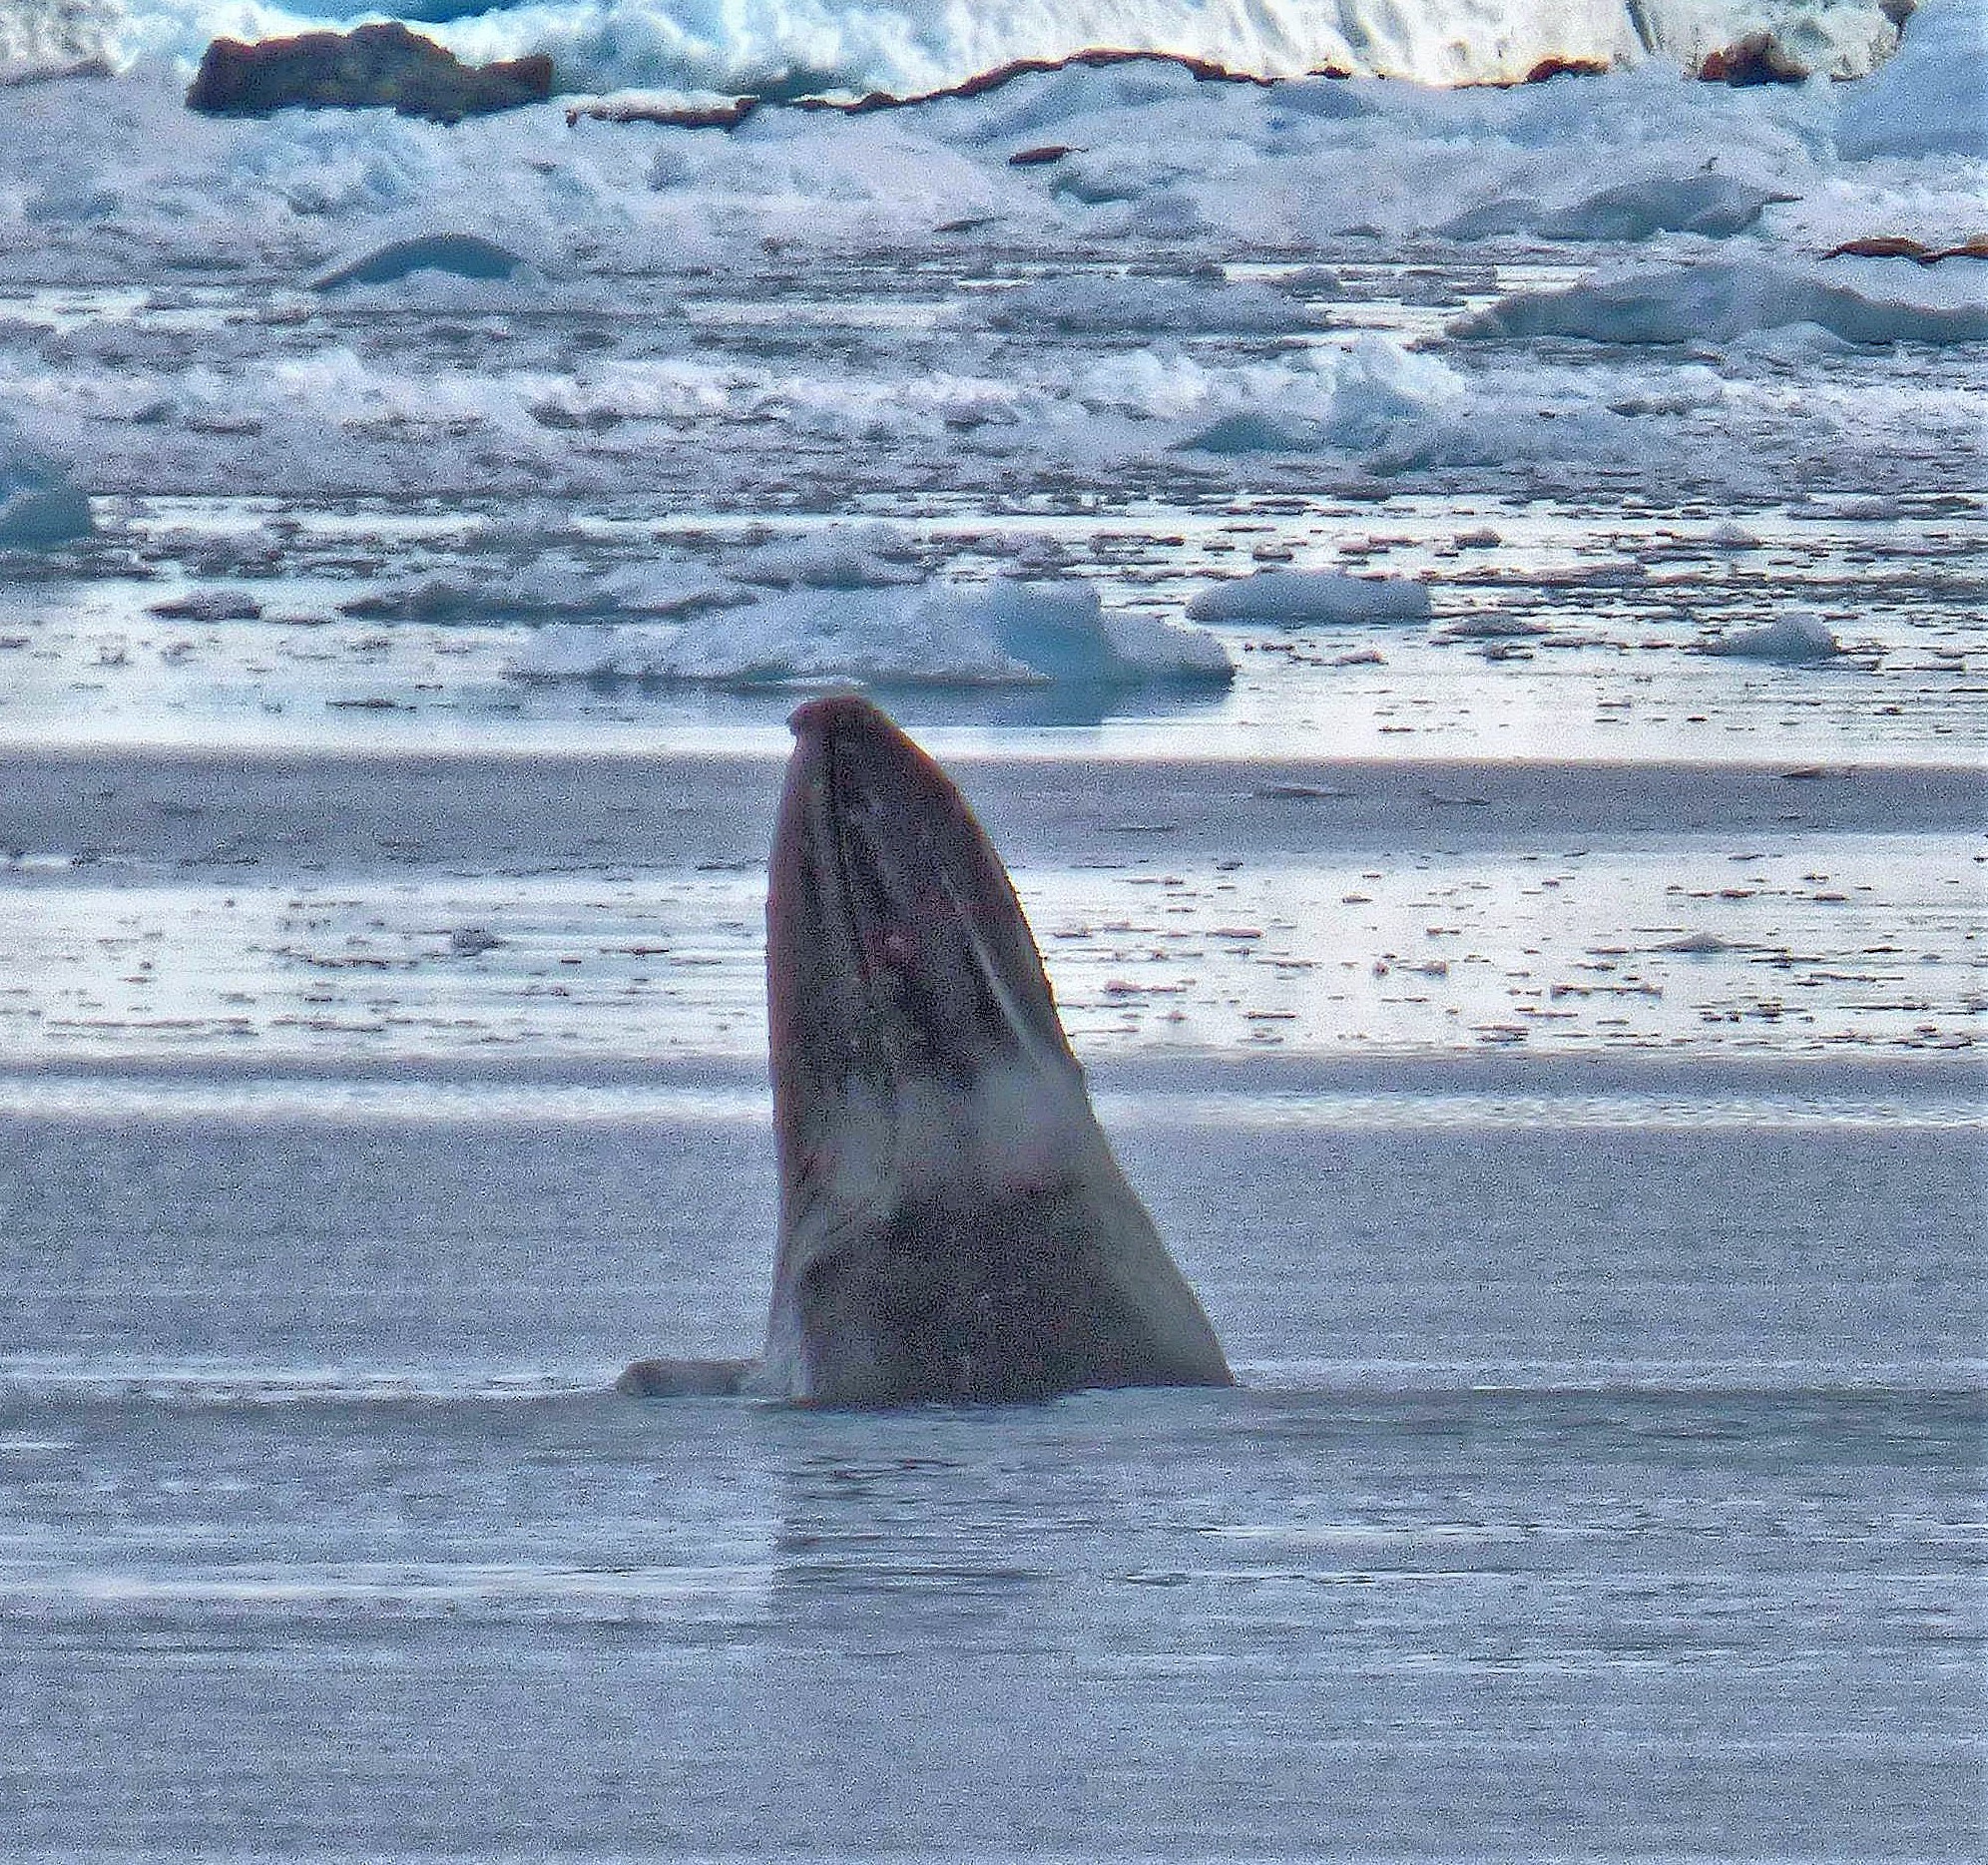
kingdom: Animalia
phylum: Chordata
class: Mammalia
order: Cetacea
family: Balaenopteridae
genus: Megaptera
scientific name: Megaptera novaeangliae
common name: Humpback whale
